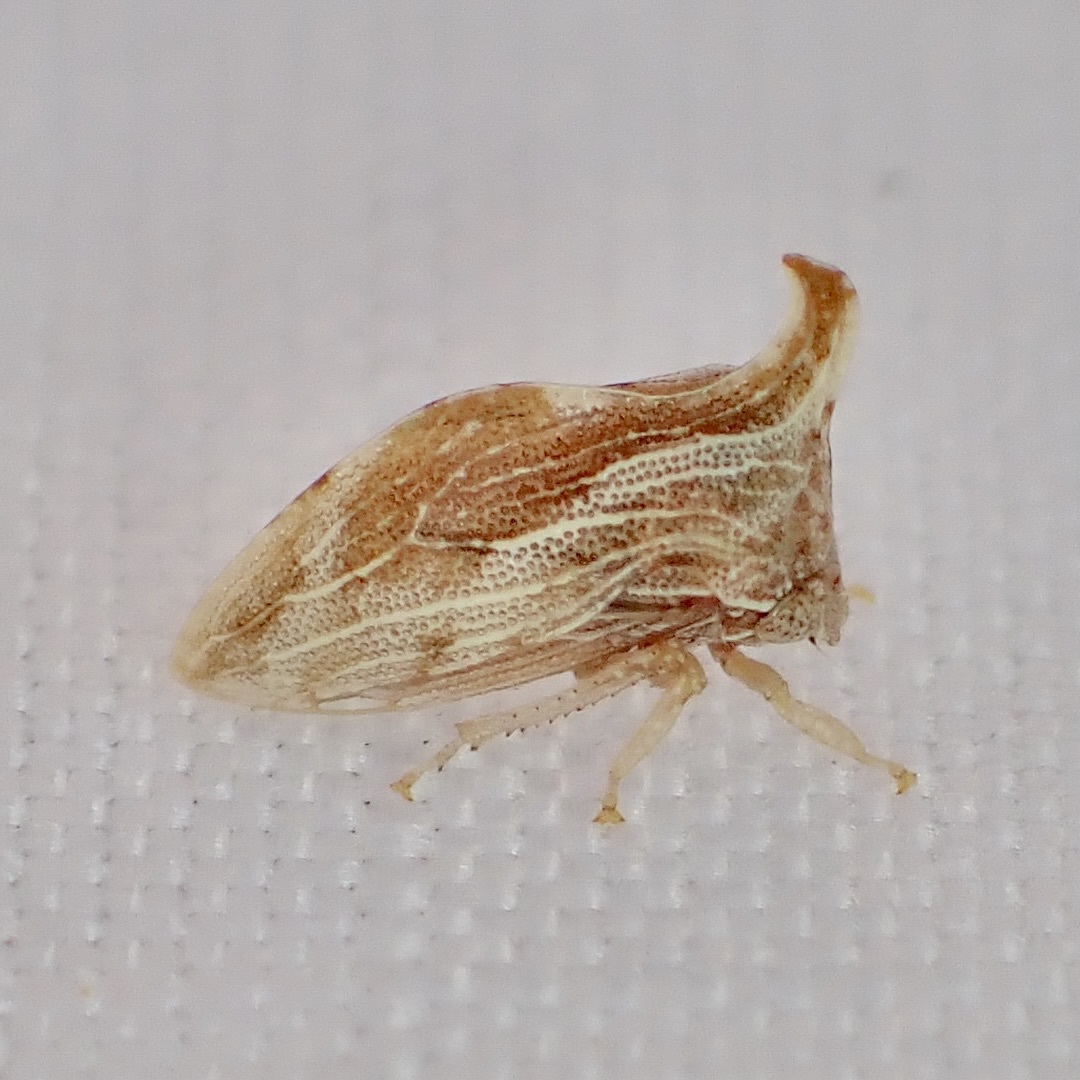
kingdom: Animalia
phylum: Arthropoda
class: Insecta
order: Hemiptera
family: Membracidae
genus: Publilia
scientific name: Publilia erecta
